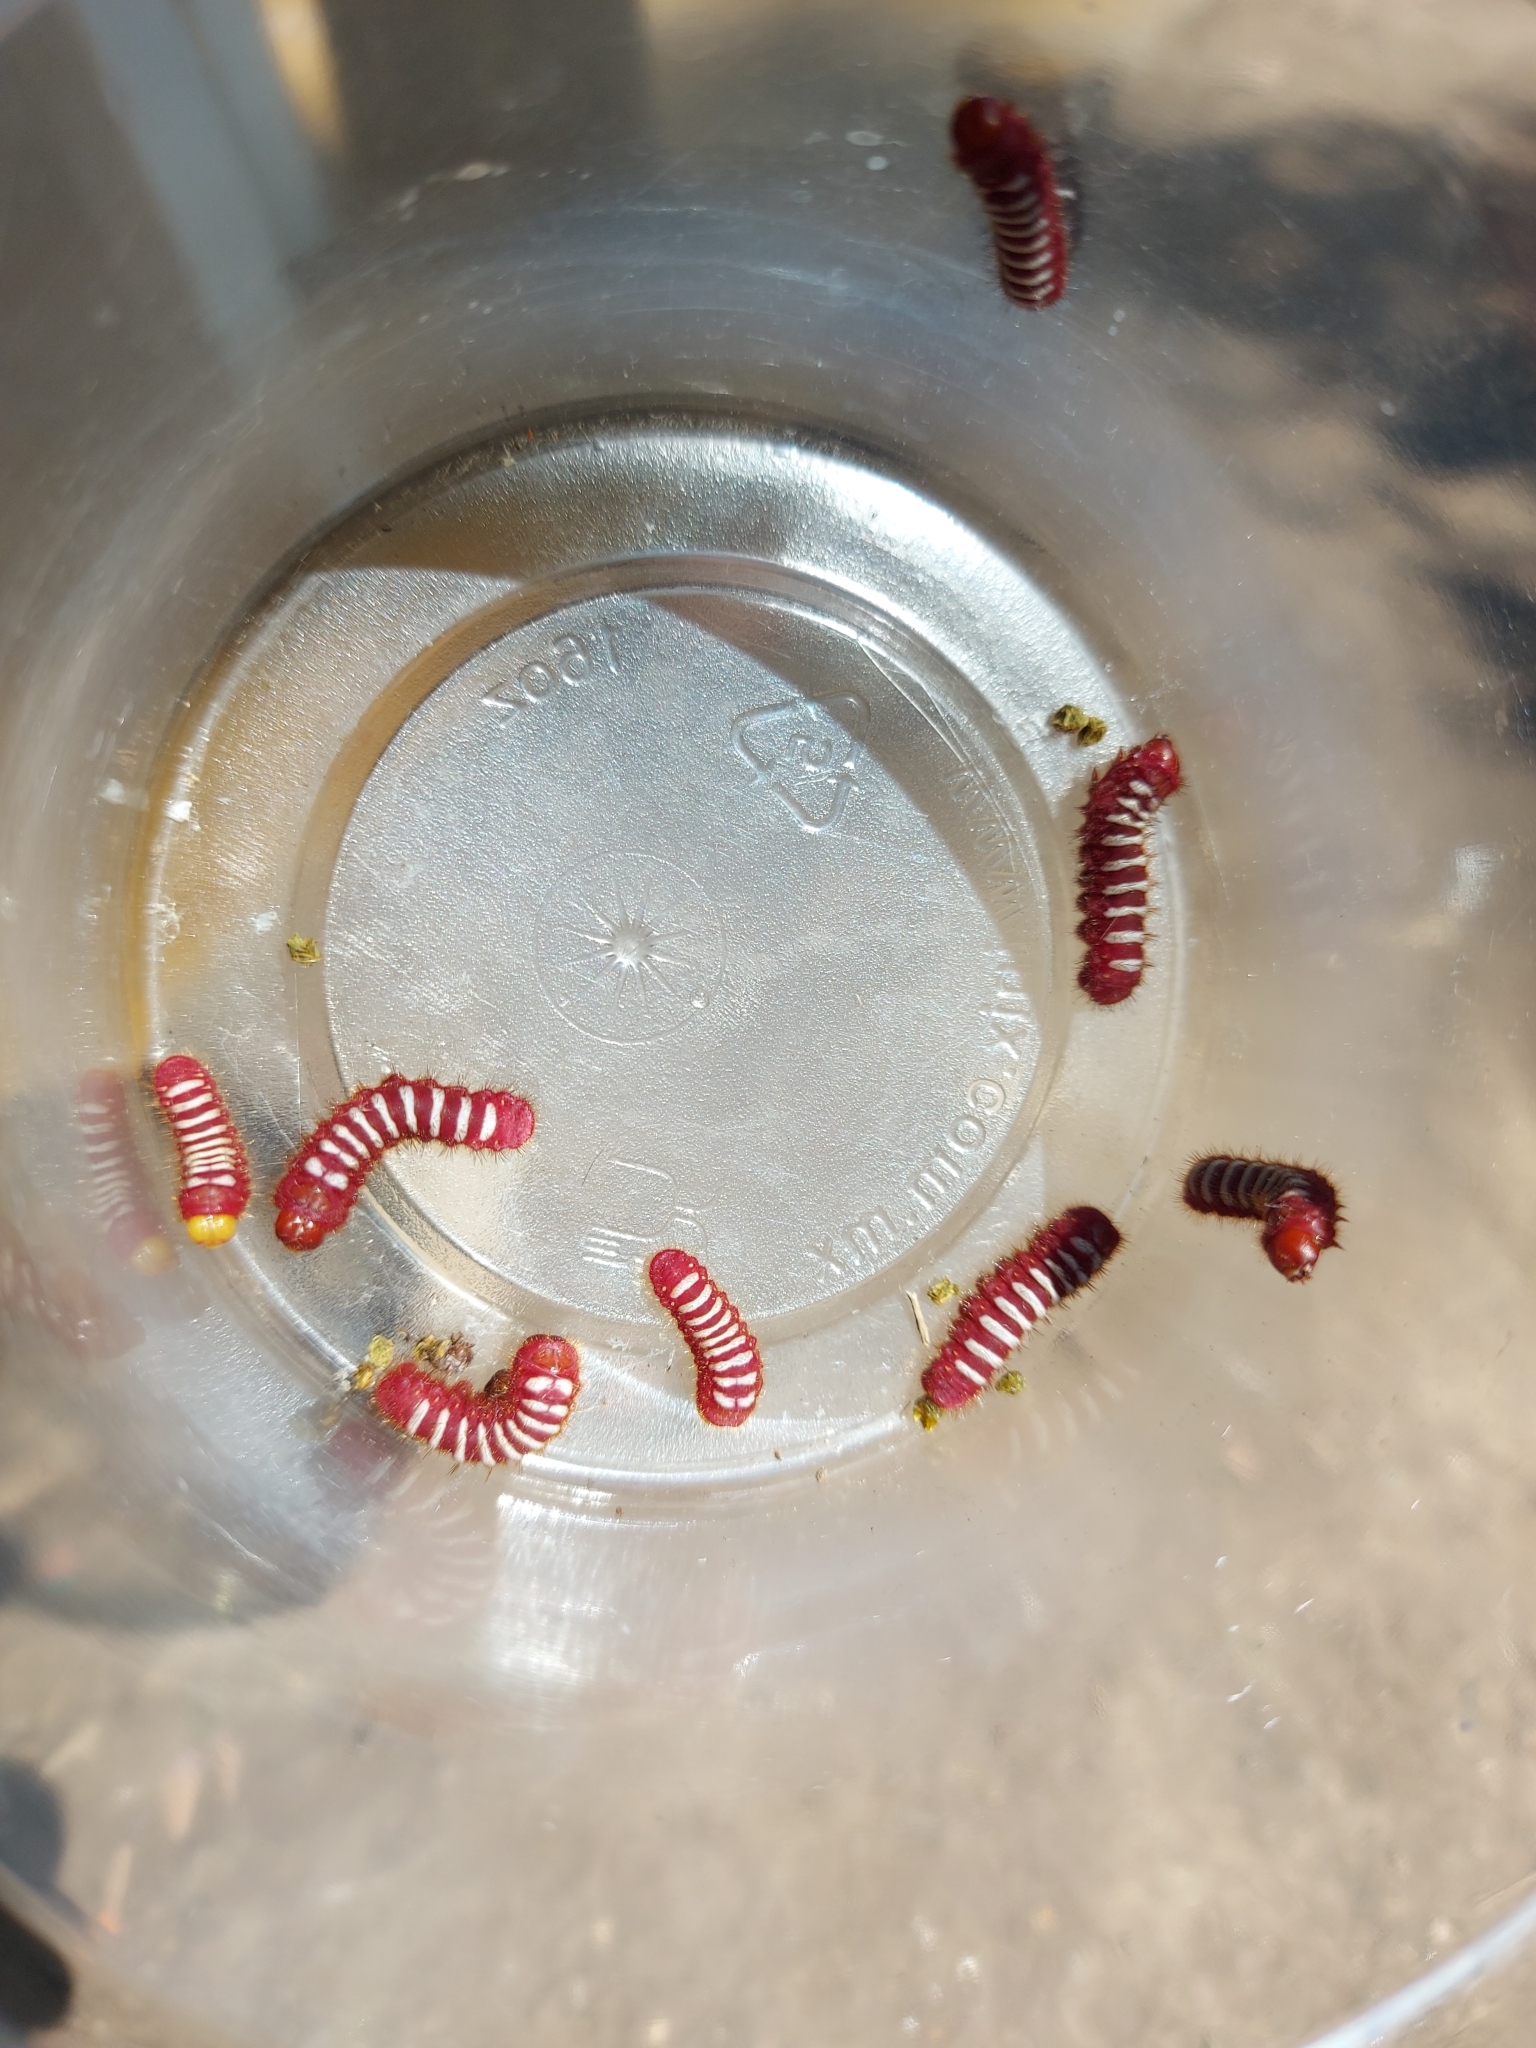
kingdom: Animalia
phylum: Arthropoda
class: Insecta
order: Lepidoptera
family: Lycaenidae
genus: Eumaeus
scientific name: Eumaeus childrenae
